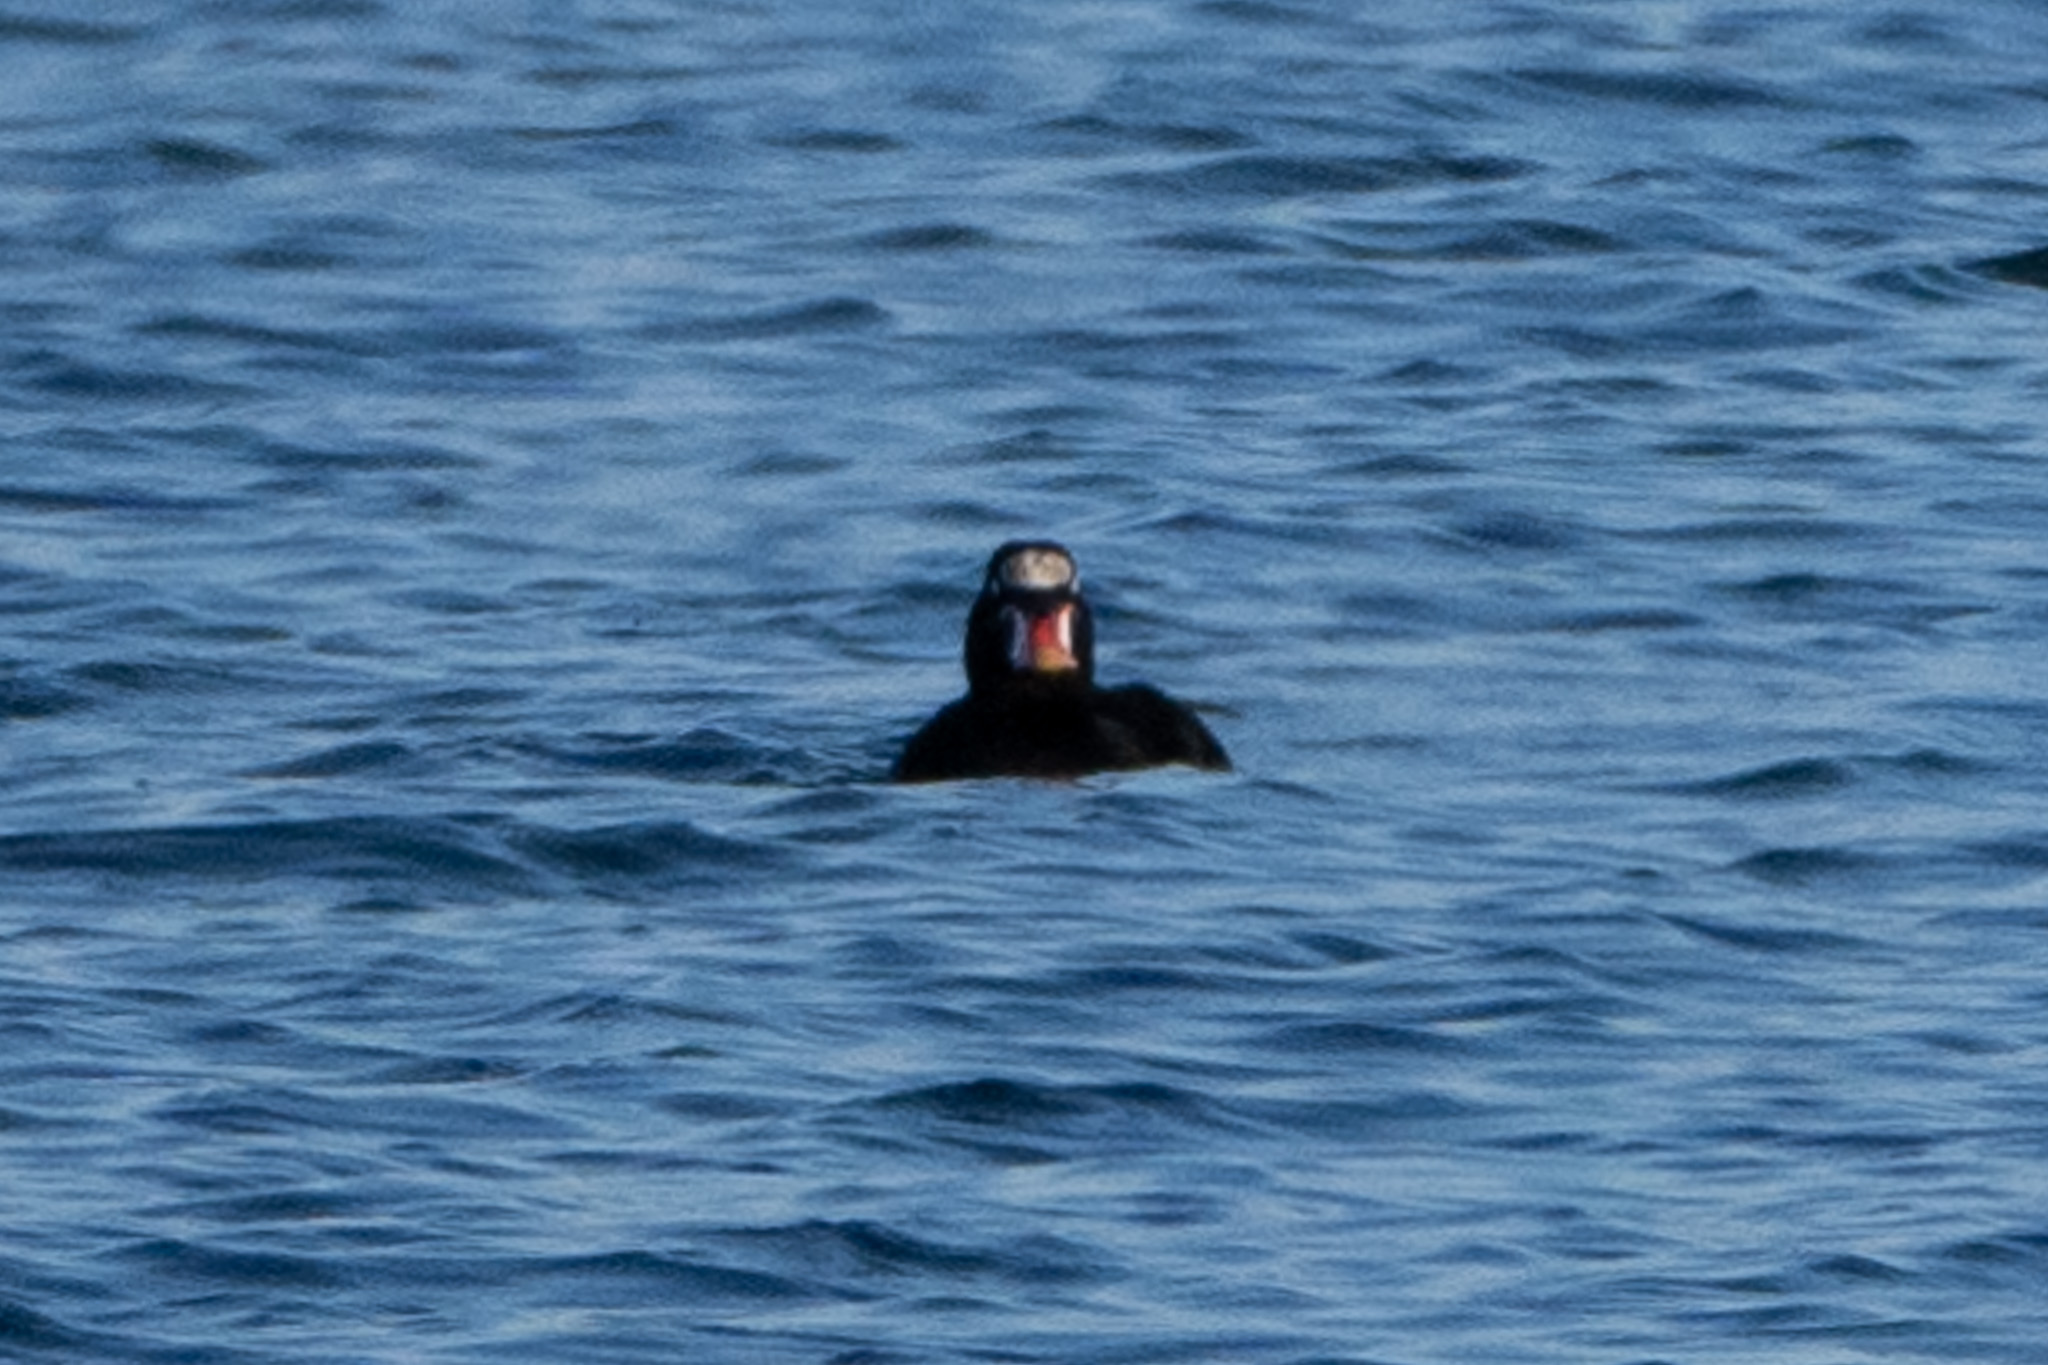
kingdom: Animalia
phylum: Chordata
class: Aves
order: Anseriformes
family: Anatidae
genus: Melanitta
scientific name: Melanitta perspicillata
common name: Surf scoter
